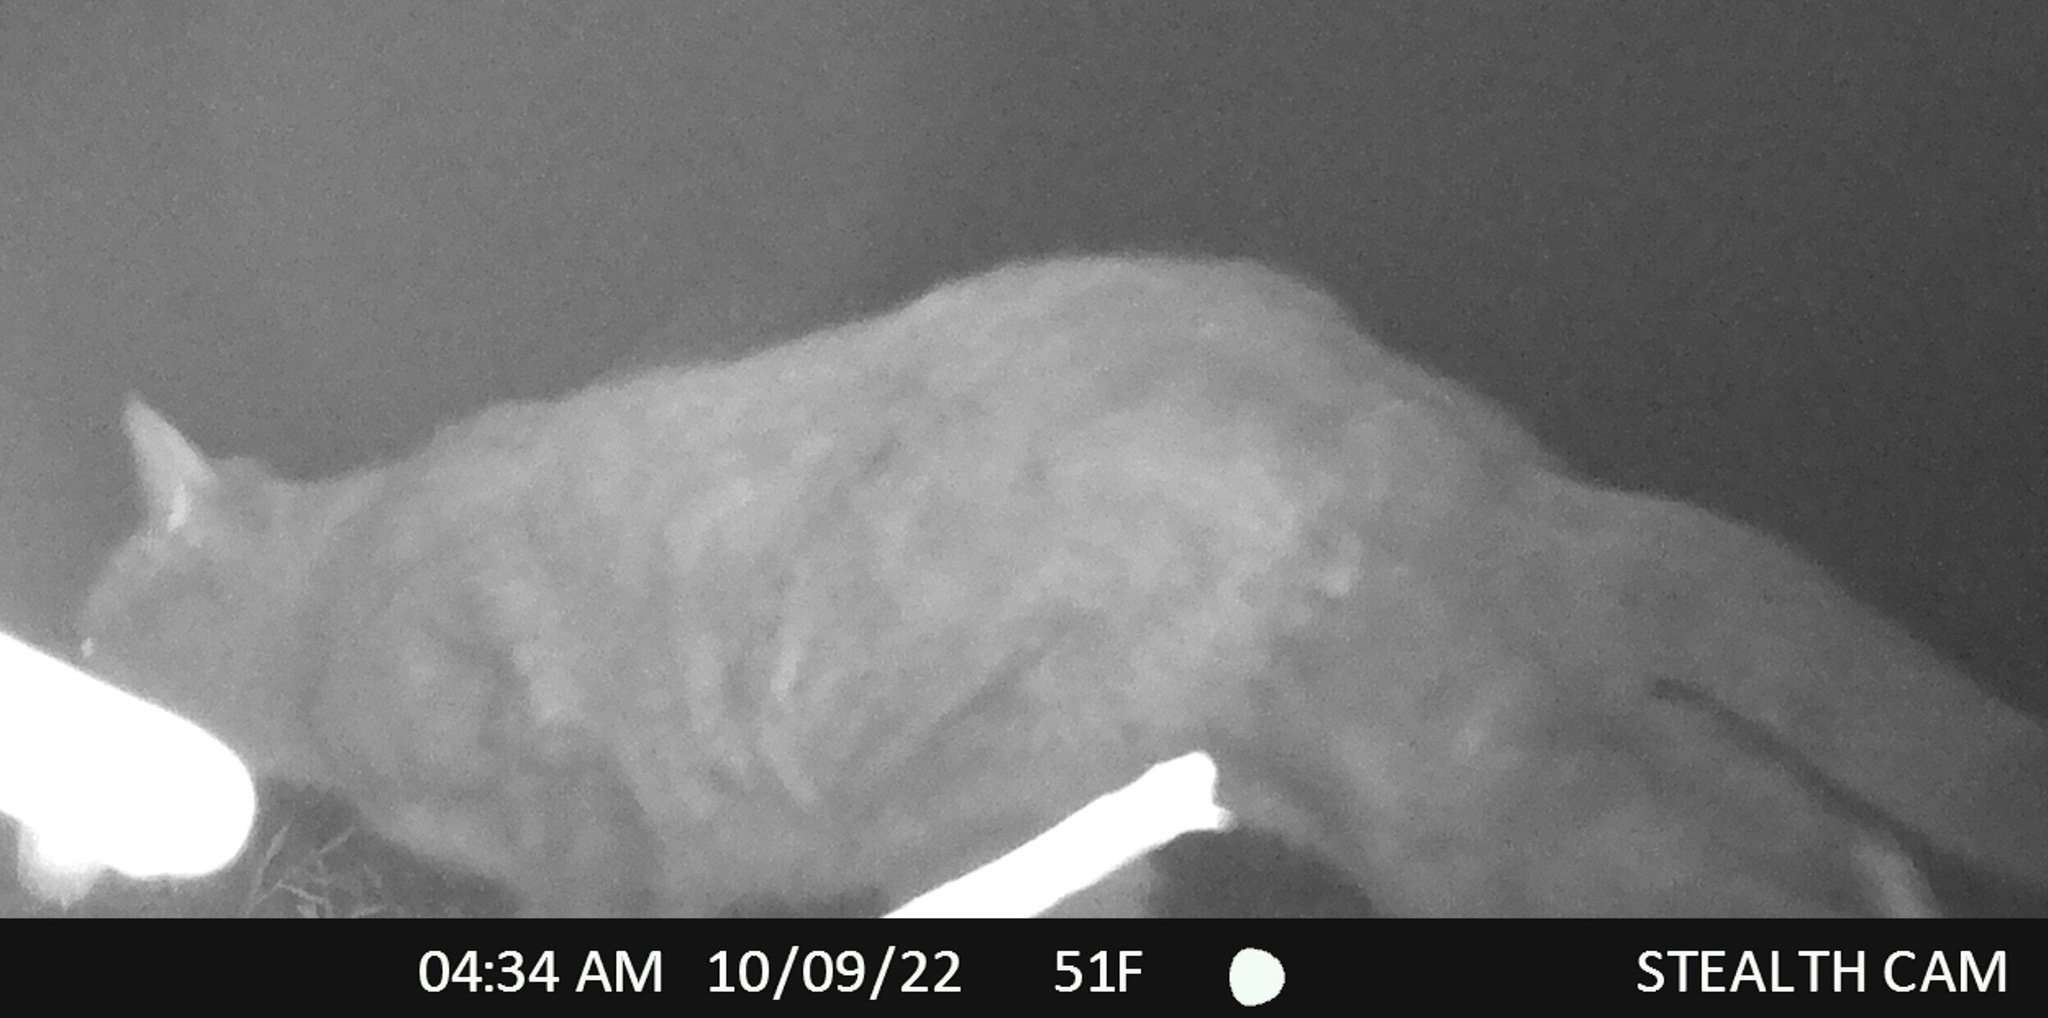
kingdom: Animalia
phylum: Chordata
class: Mammalia
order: Carnivora
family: Felidae
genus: Felis
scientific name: Felis catus
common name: Domestic cat
